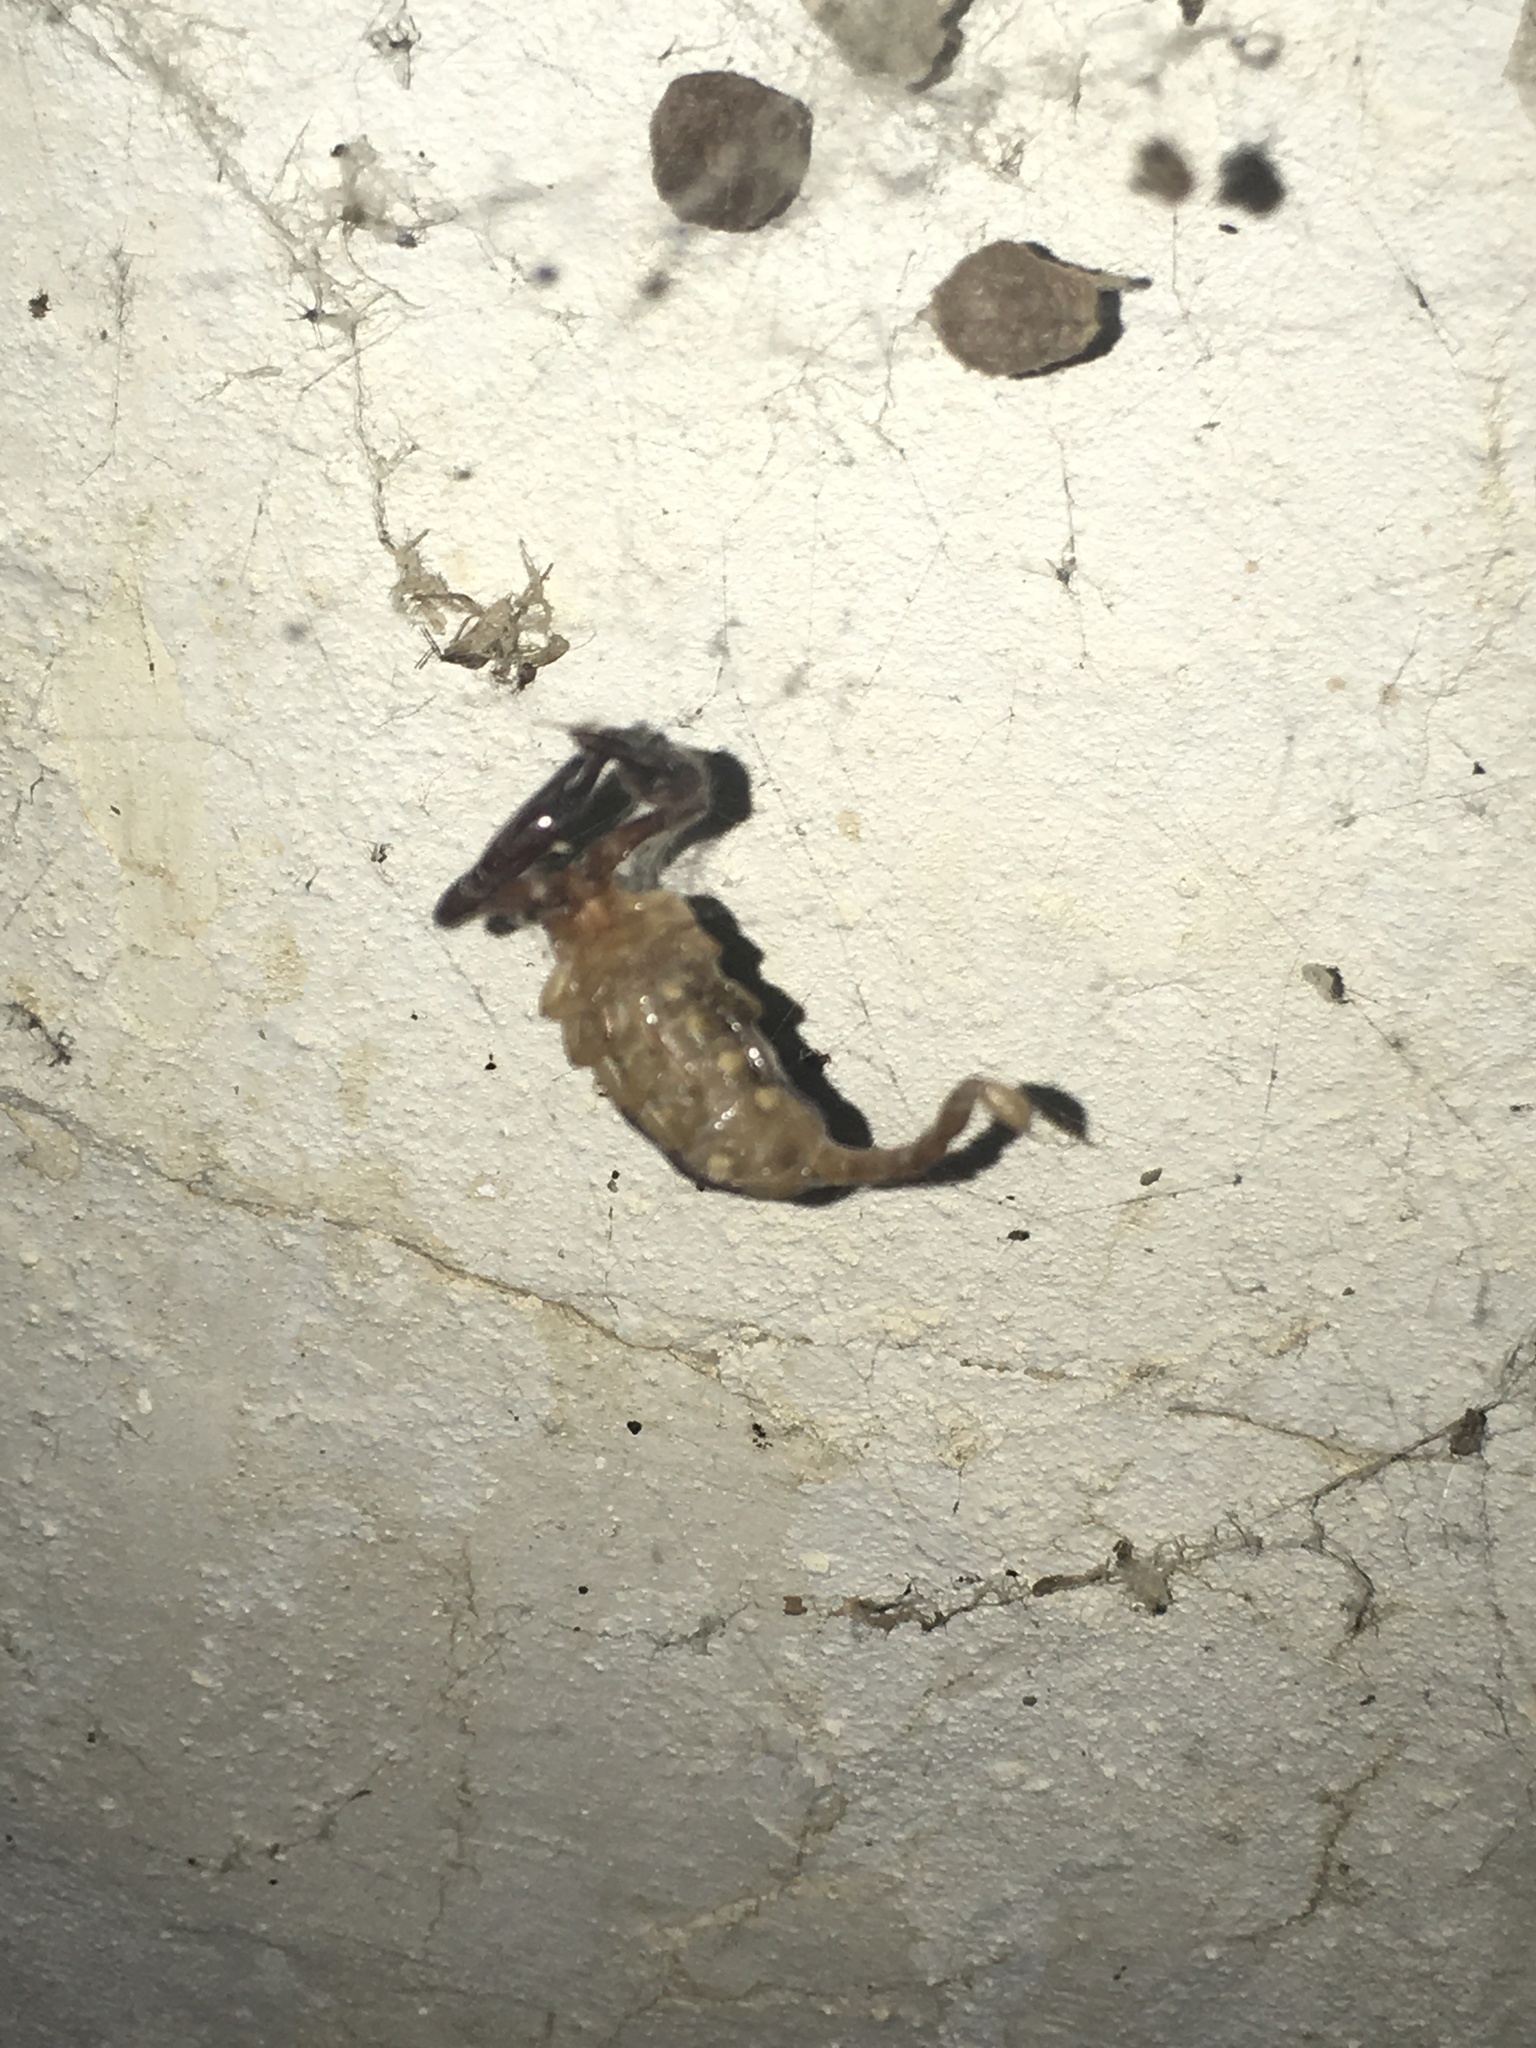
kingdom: Animalia
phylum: Arthropoda
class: Arachnida
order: Scorpiones
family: Euscorpiidae
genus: Euscorpius
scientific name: Euscorpius tauricus
